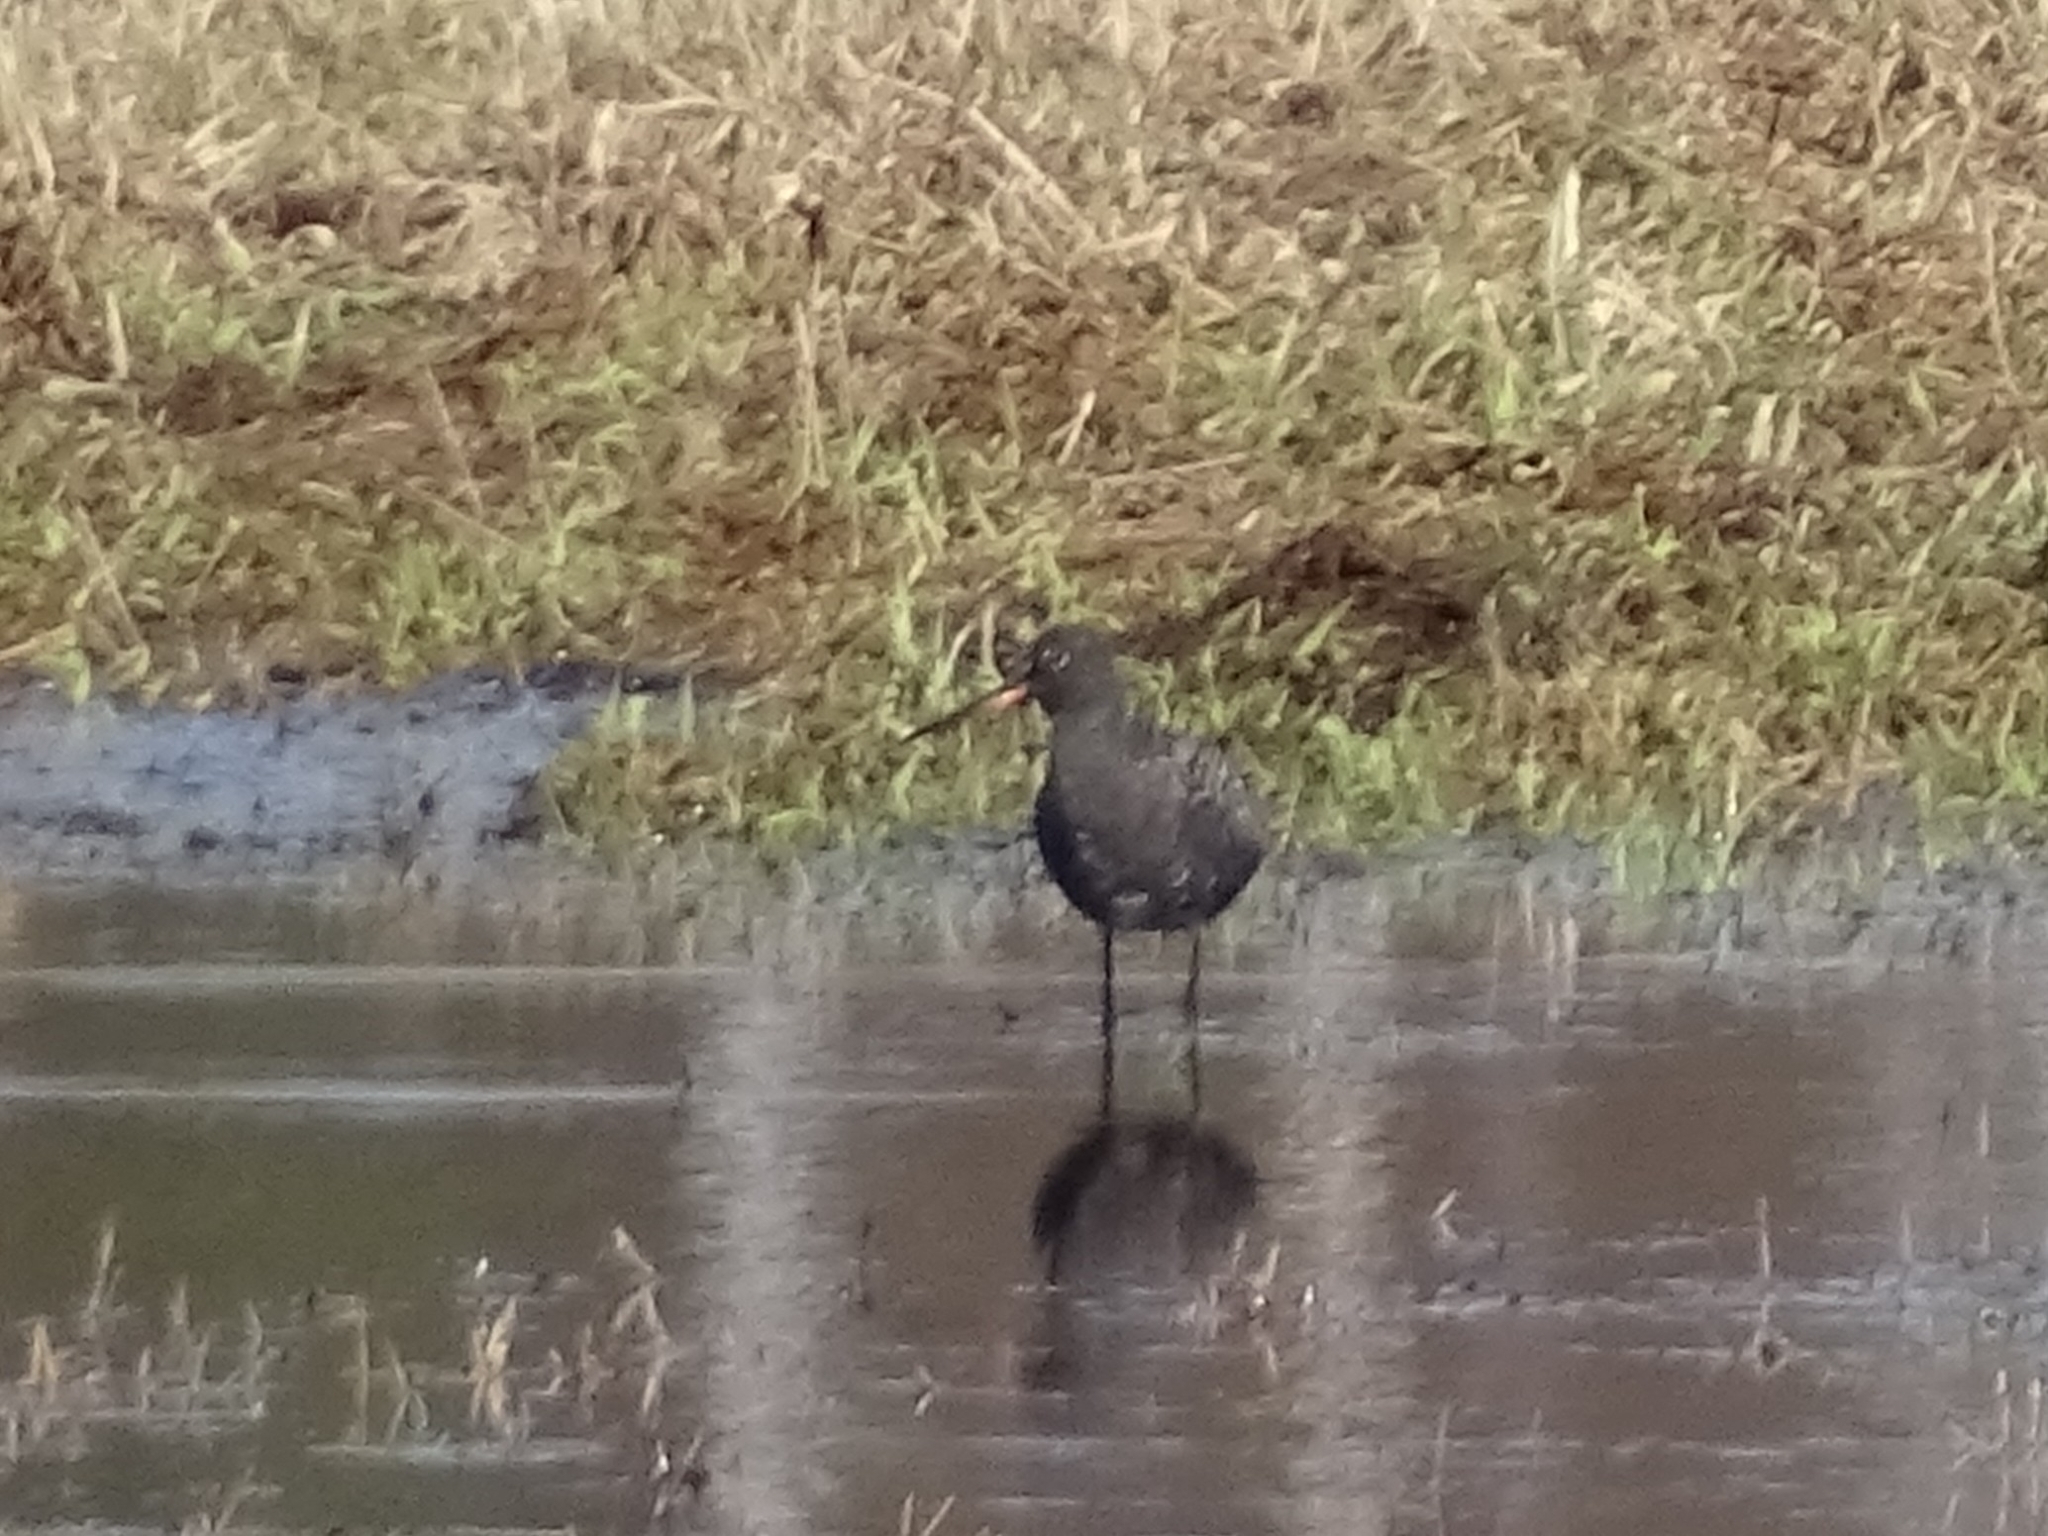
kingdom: Animalia
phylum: Chordata
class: Aves
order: Charadriiformes
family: Scolopacidae
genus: Tringa
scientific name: Tringa erythropus
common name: Spotted redshank
